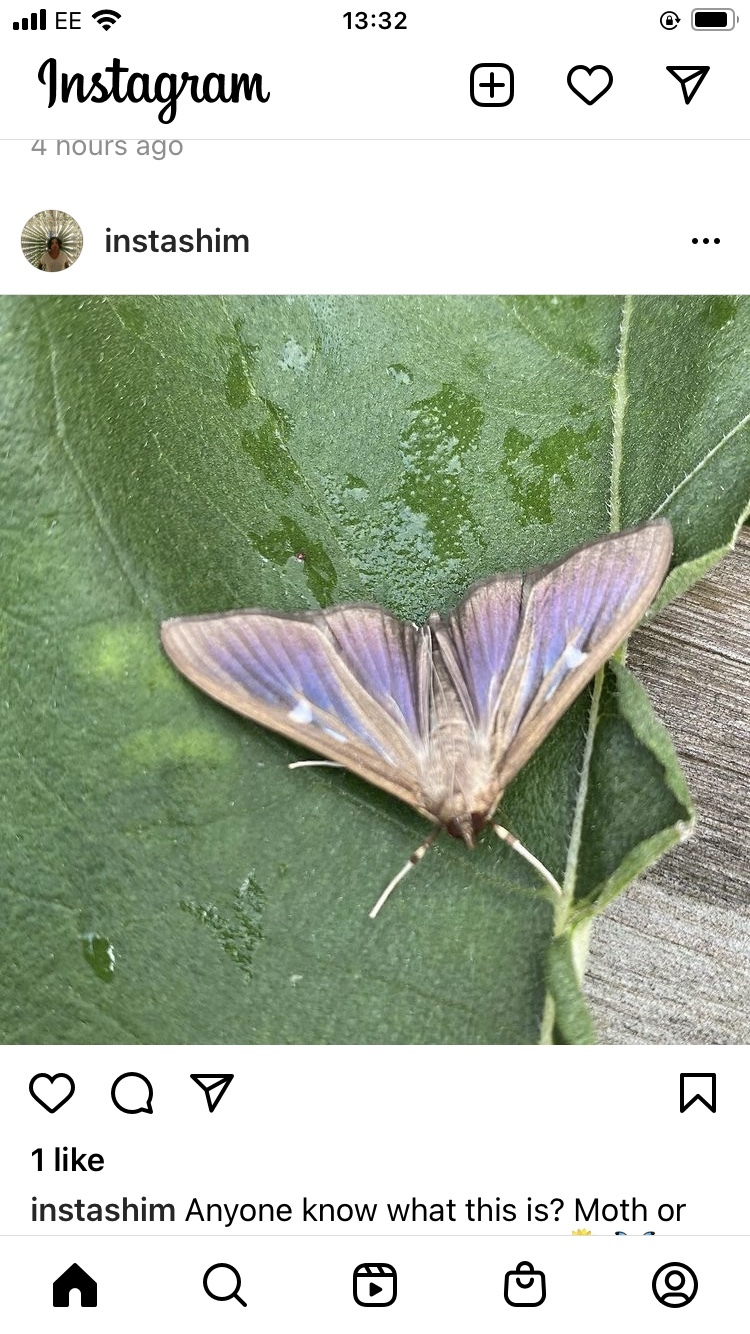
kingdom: Animalia
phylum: Arthropoda
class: Insecta
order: Lepidoptera
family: Crambidae
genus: Cydalima
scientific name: Cydalima perspectalis
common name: Box tree moth
